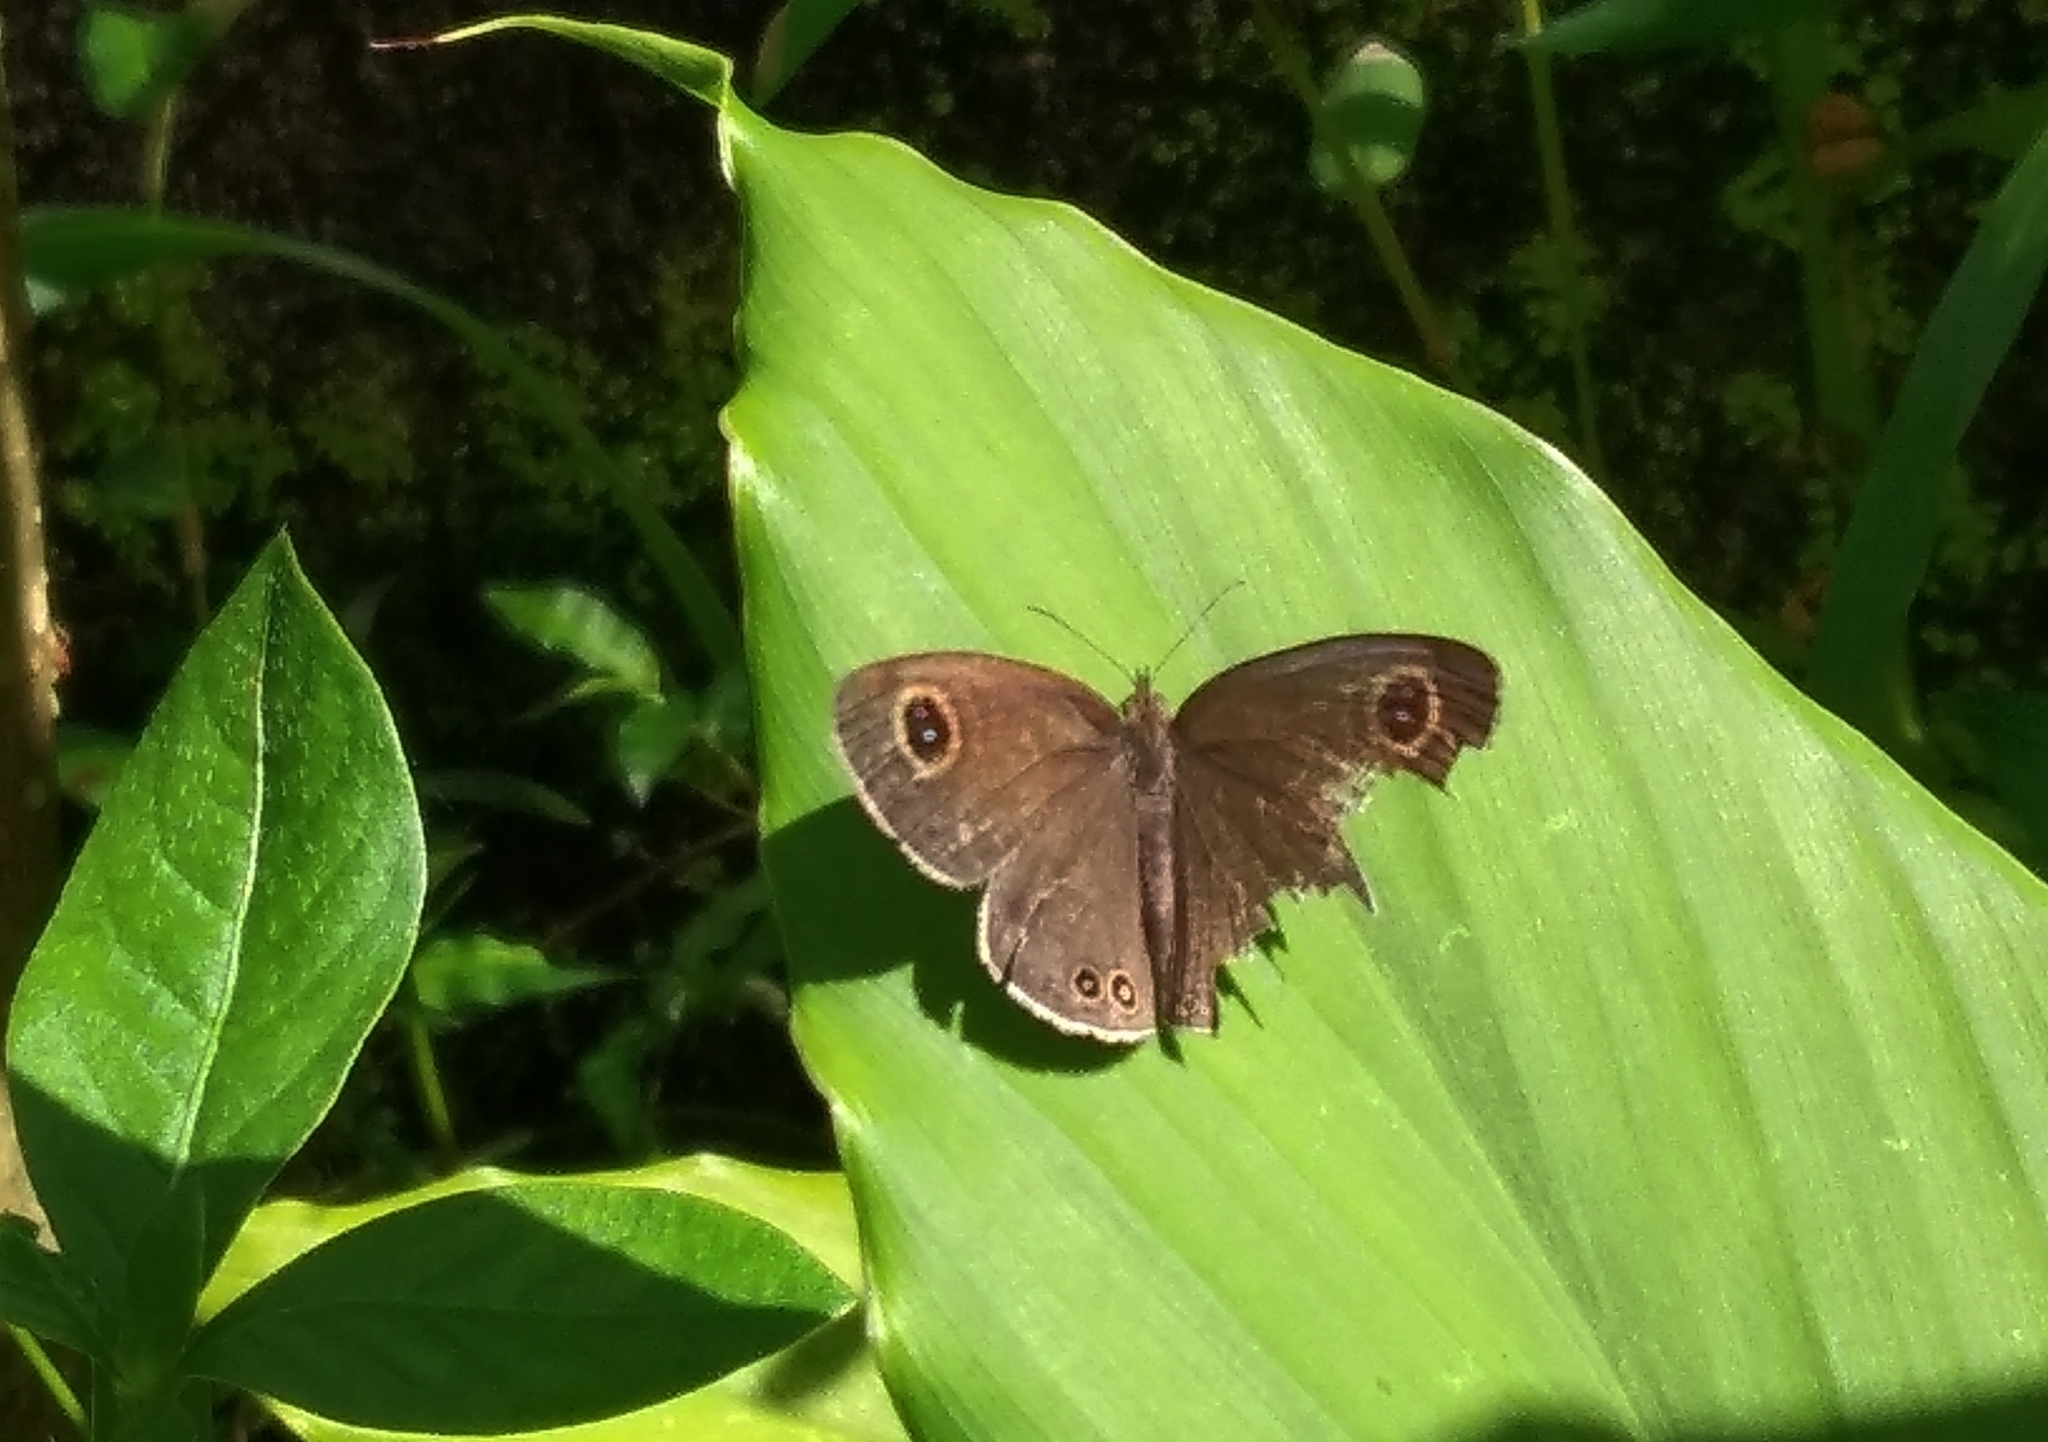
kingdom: Animalia
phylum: Arthropoda
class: Insecta
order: Lepidoptera
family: Nymphalidae
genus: Ypthima
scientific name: Ypthima huebneri
